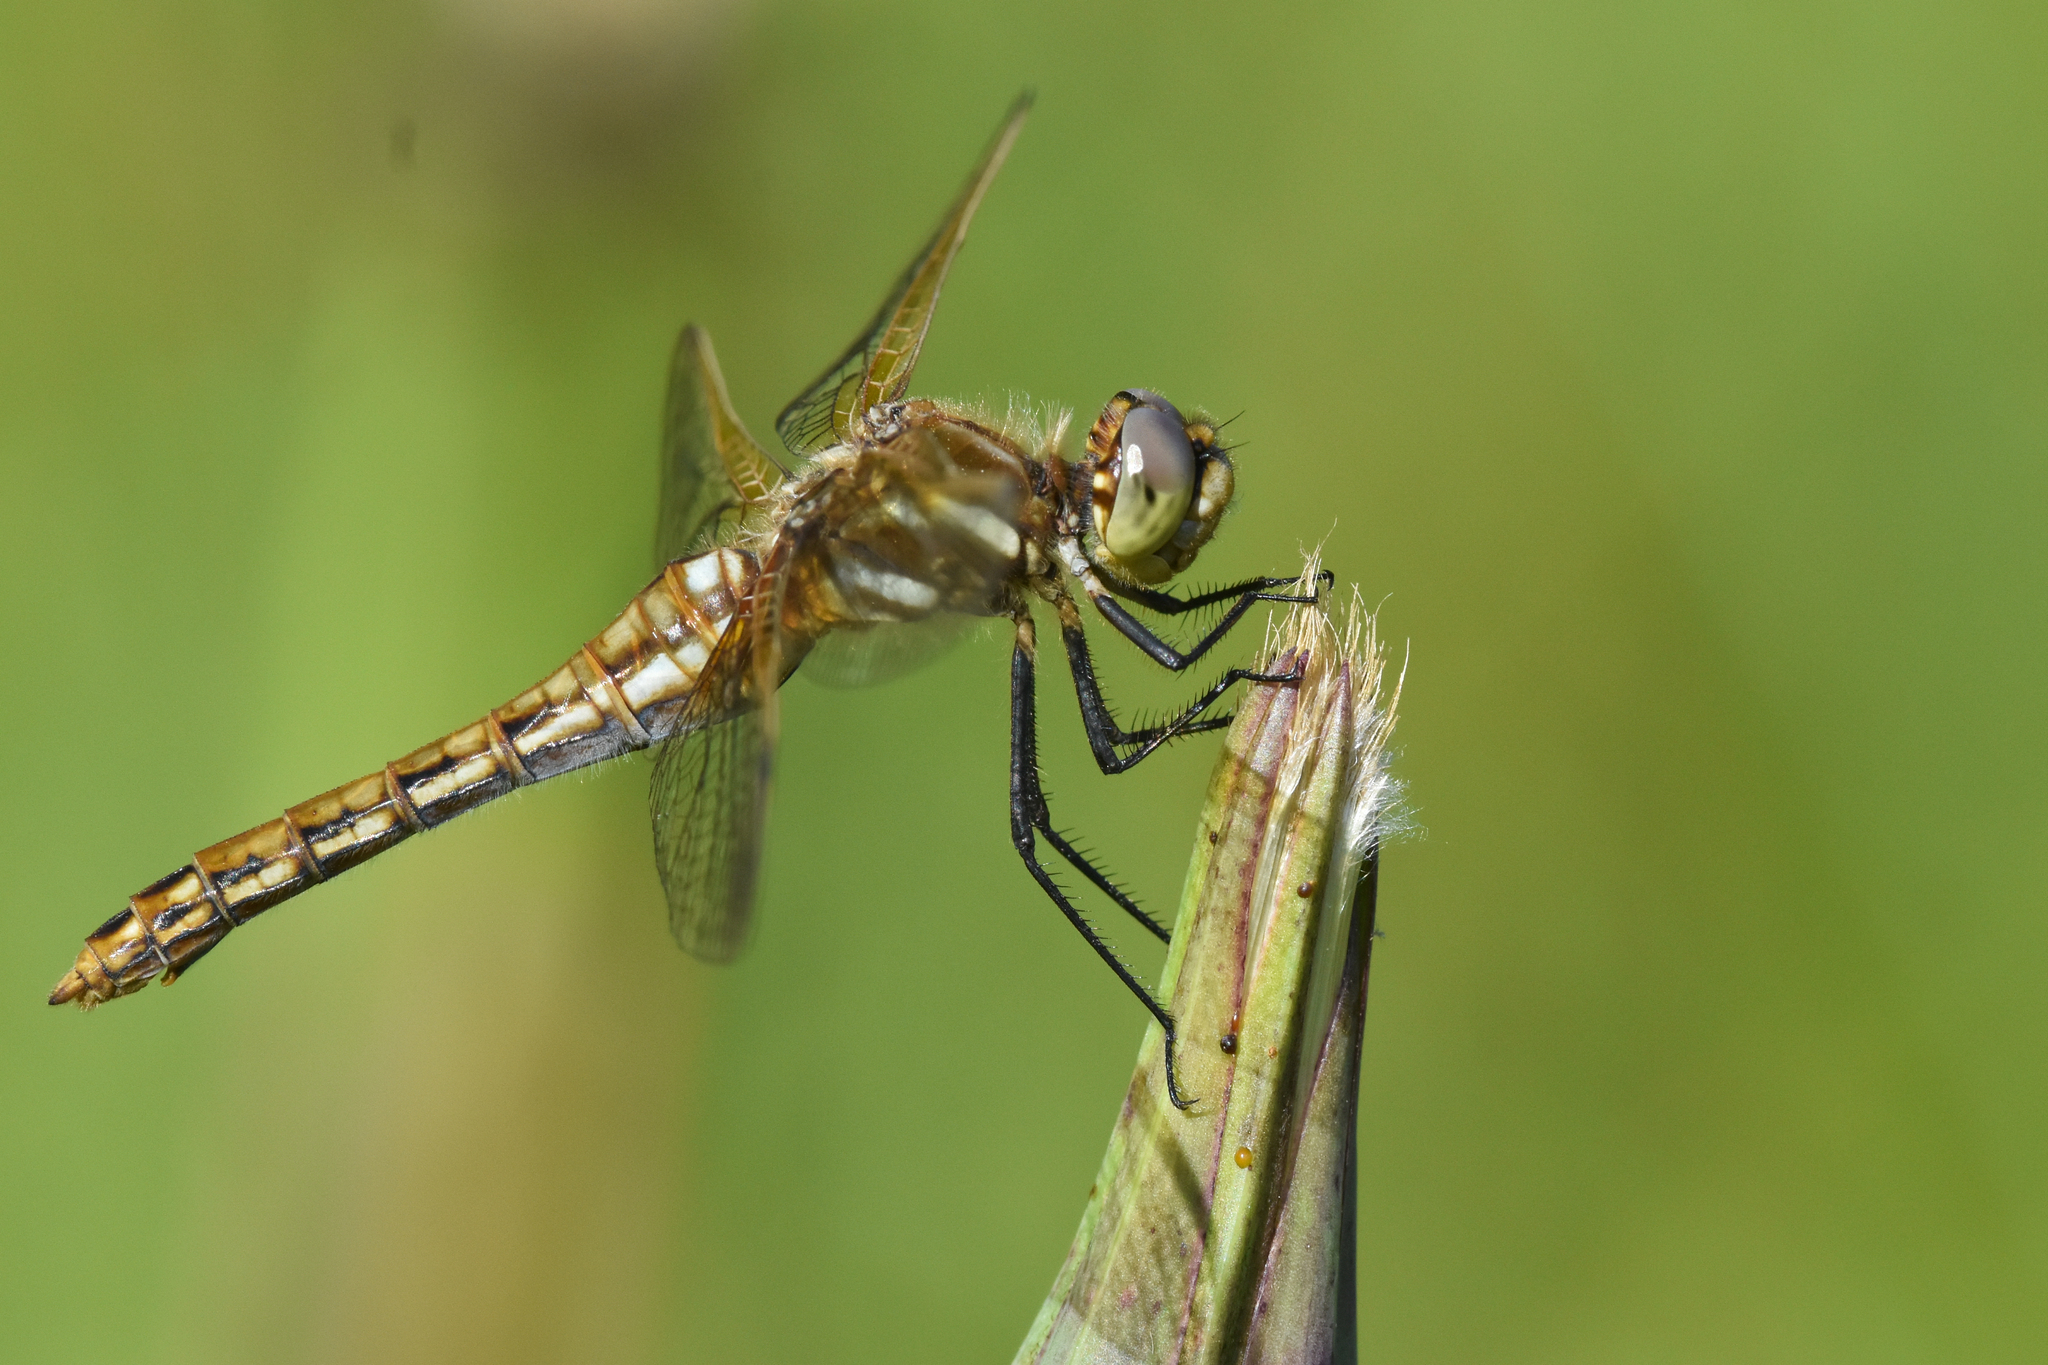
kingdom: Animalia
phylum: Arthropoda
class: Insecta
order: Odonata
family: Libellulidae
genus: Sympetrum
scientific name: Sympetrum madidum
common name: Red-veined meadowhawk
